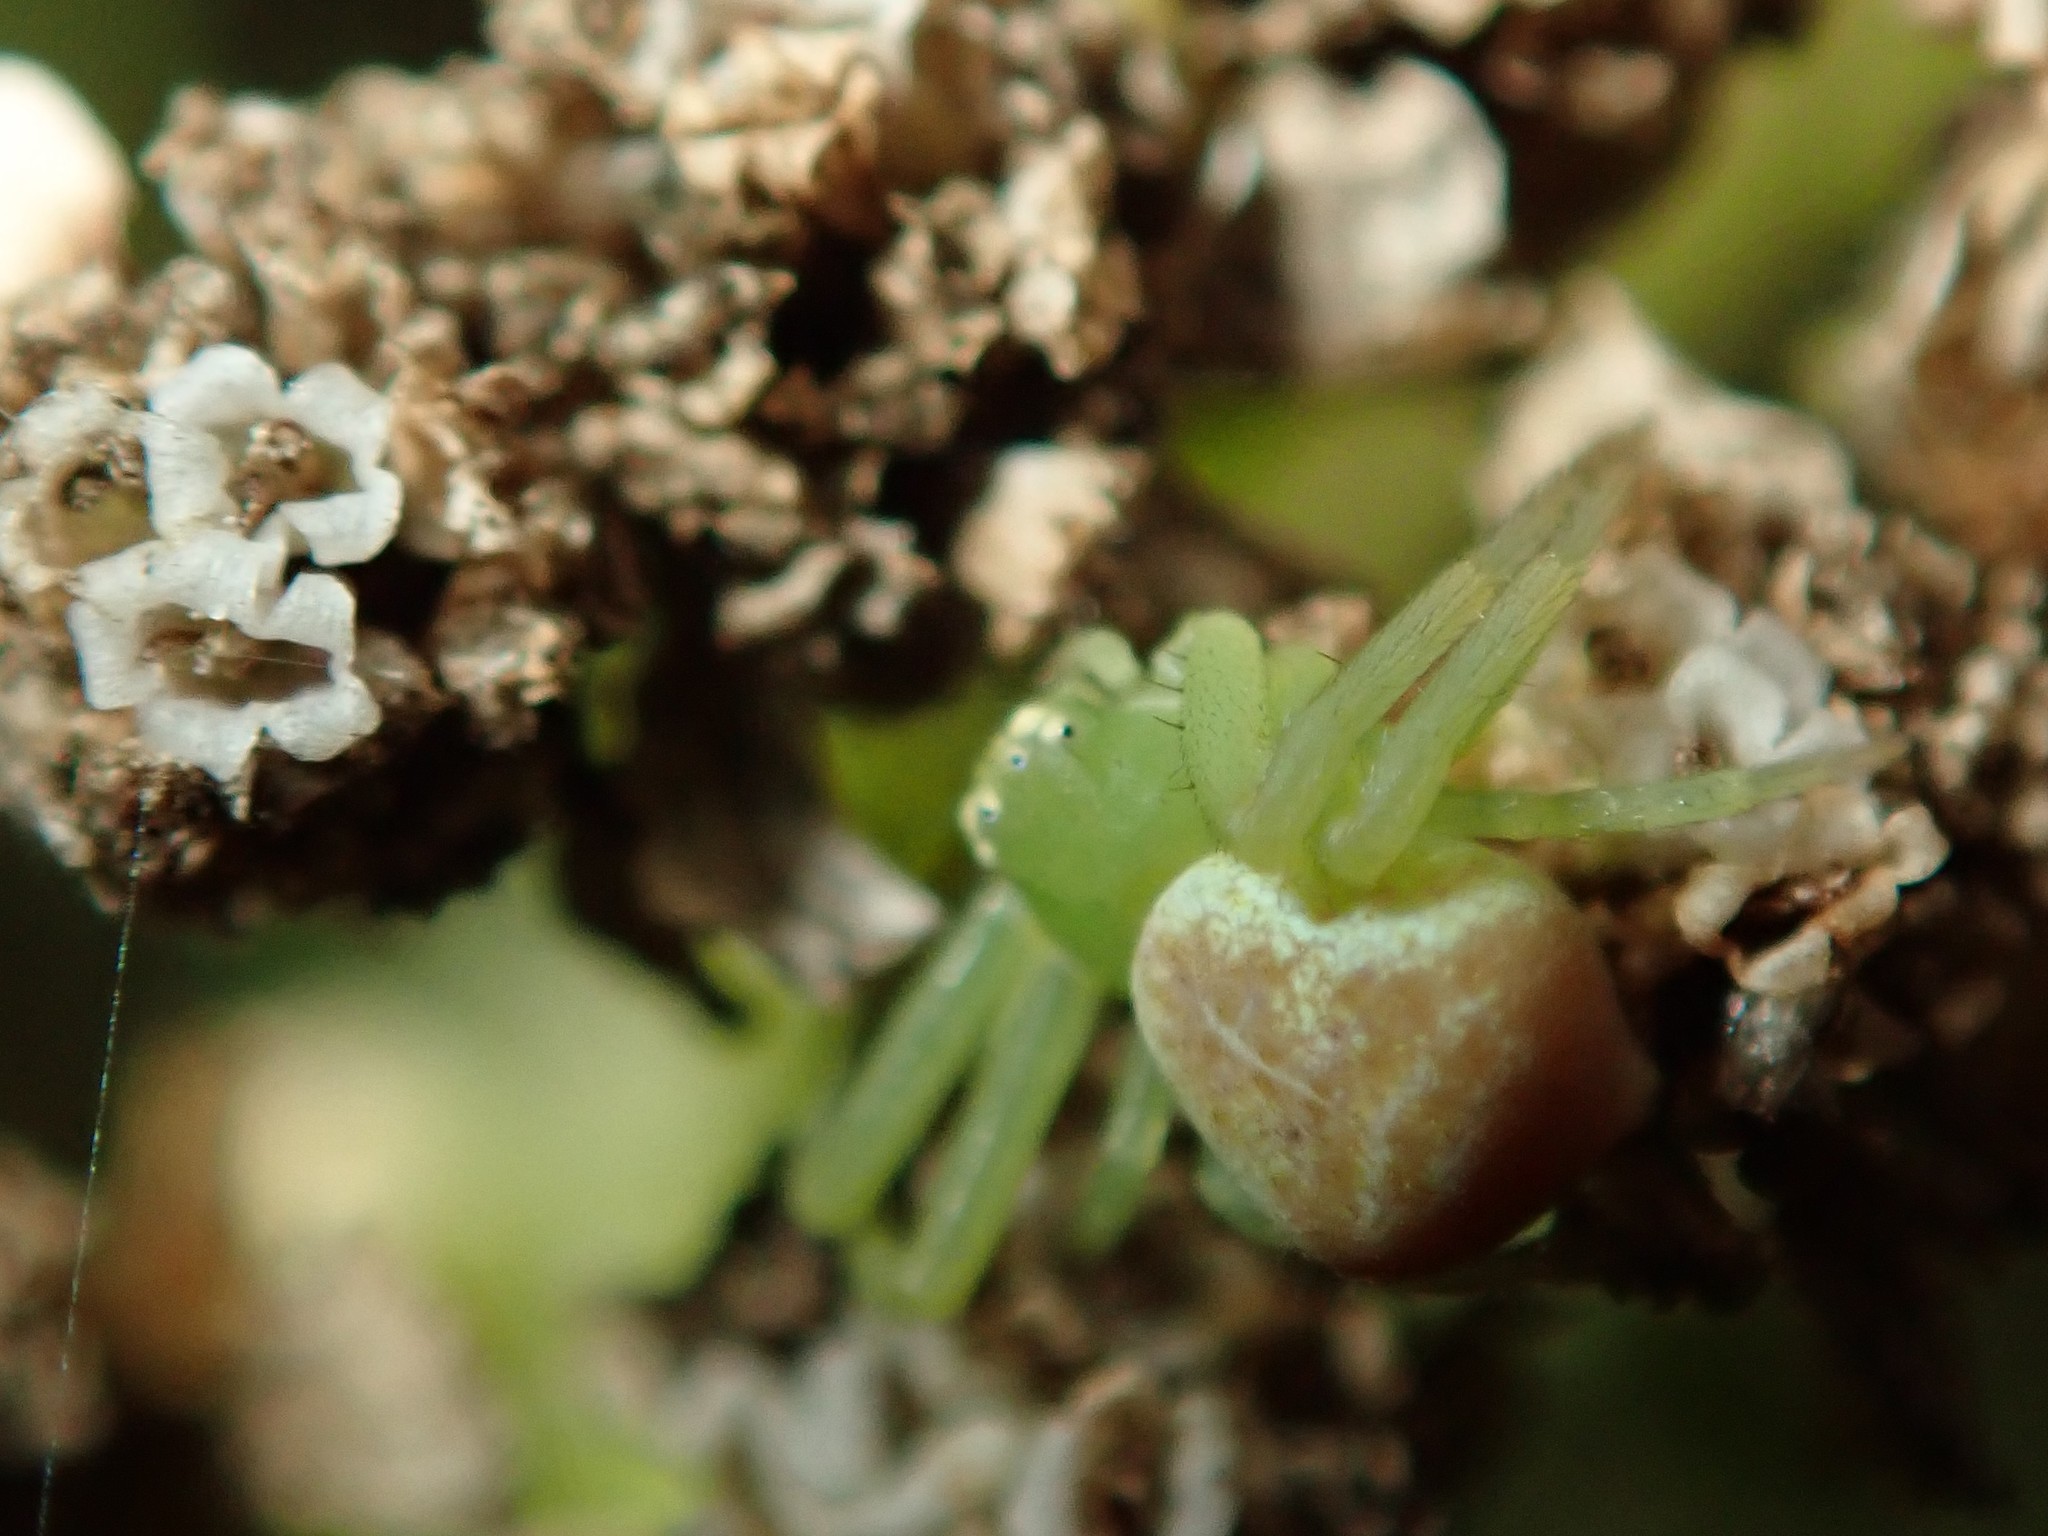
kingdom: Animalia
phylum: Arthropoda
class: Arachnida
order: Araneae
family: Thomisidae
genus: Ebrechtella
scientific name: Ebrechtella tricuspidata
